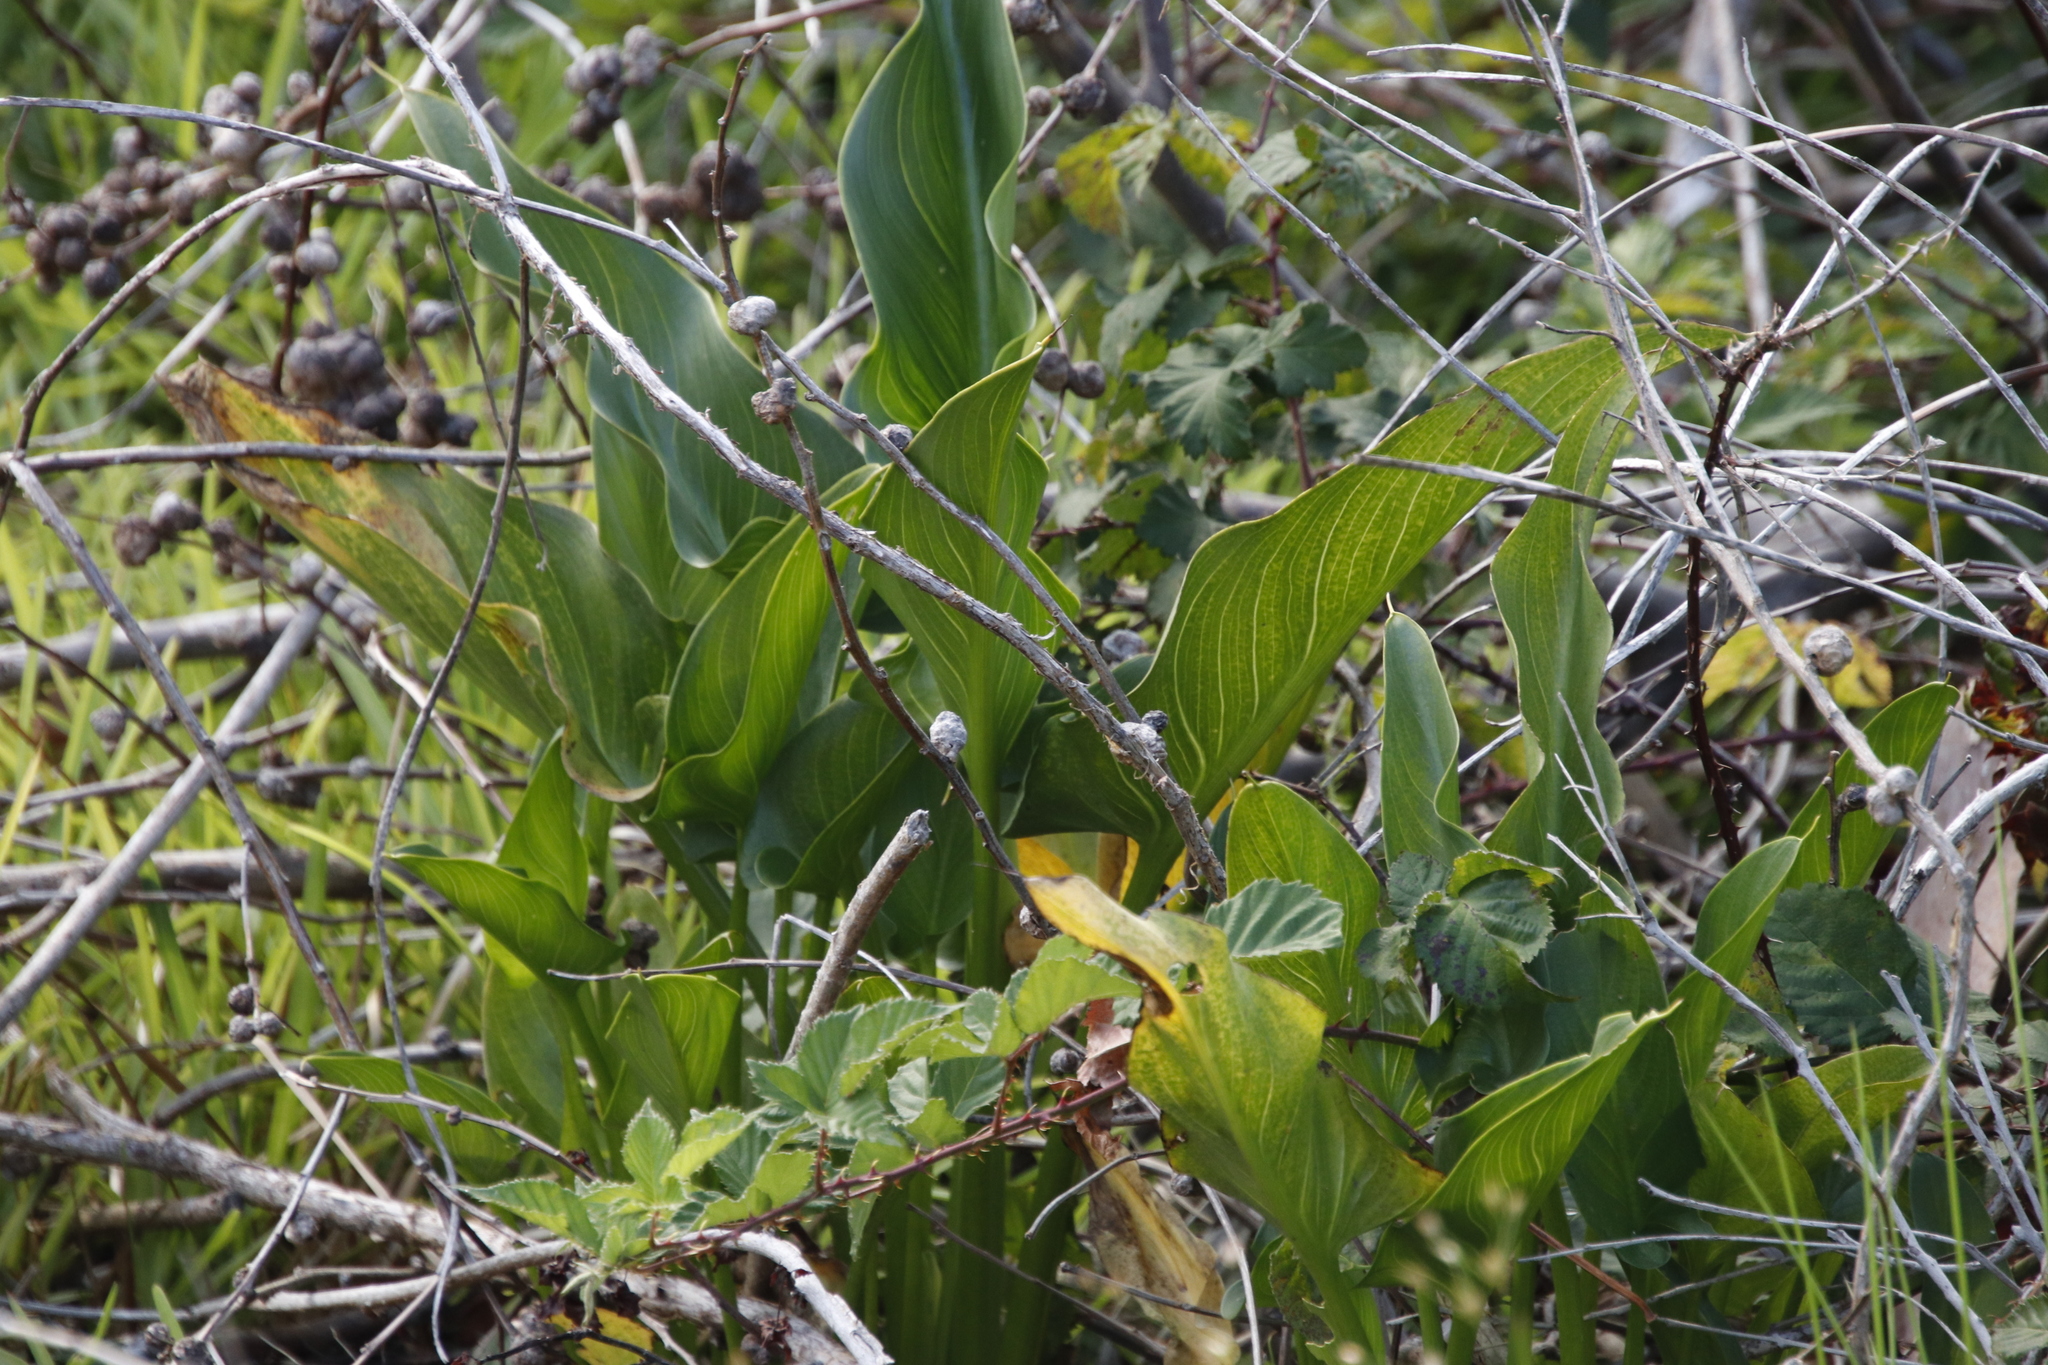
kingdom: Plantae
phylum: Tracheophyta
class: Liliopsida
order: Alismatales
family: Araceae
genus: Zantedeschia
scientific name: Zantedeschia aethiopica
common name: Altar-lily
